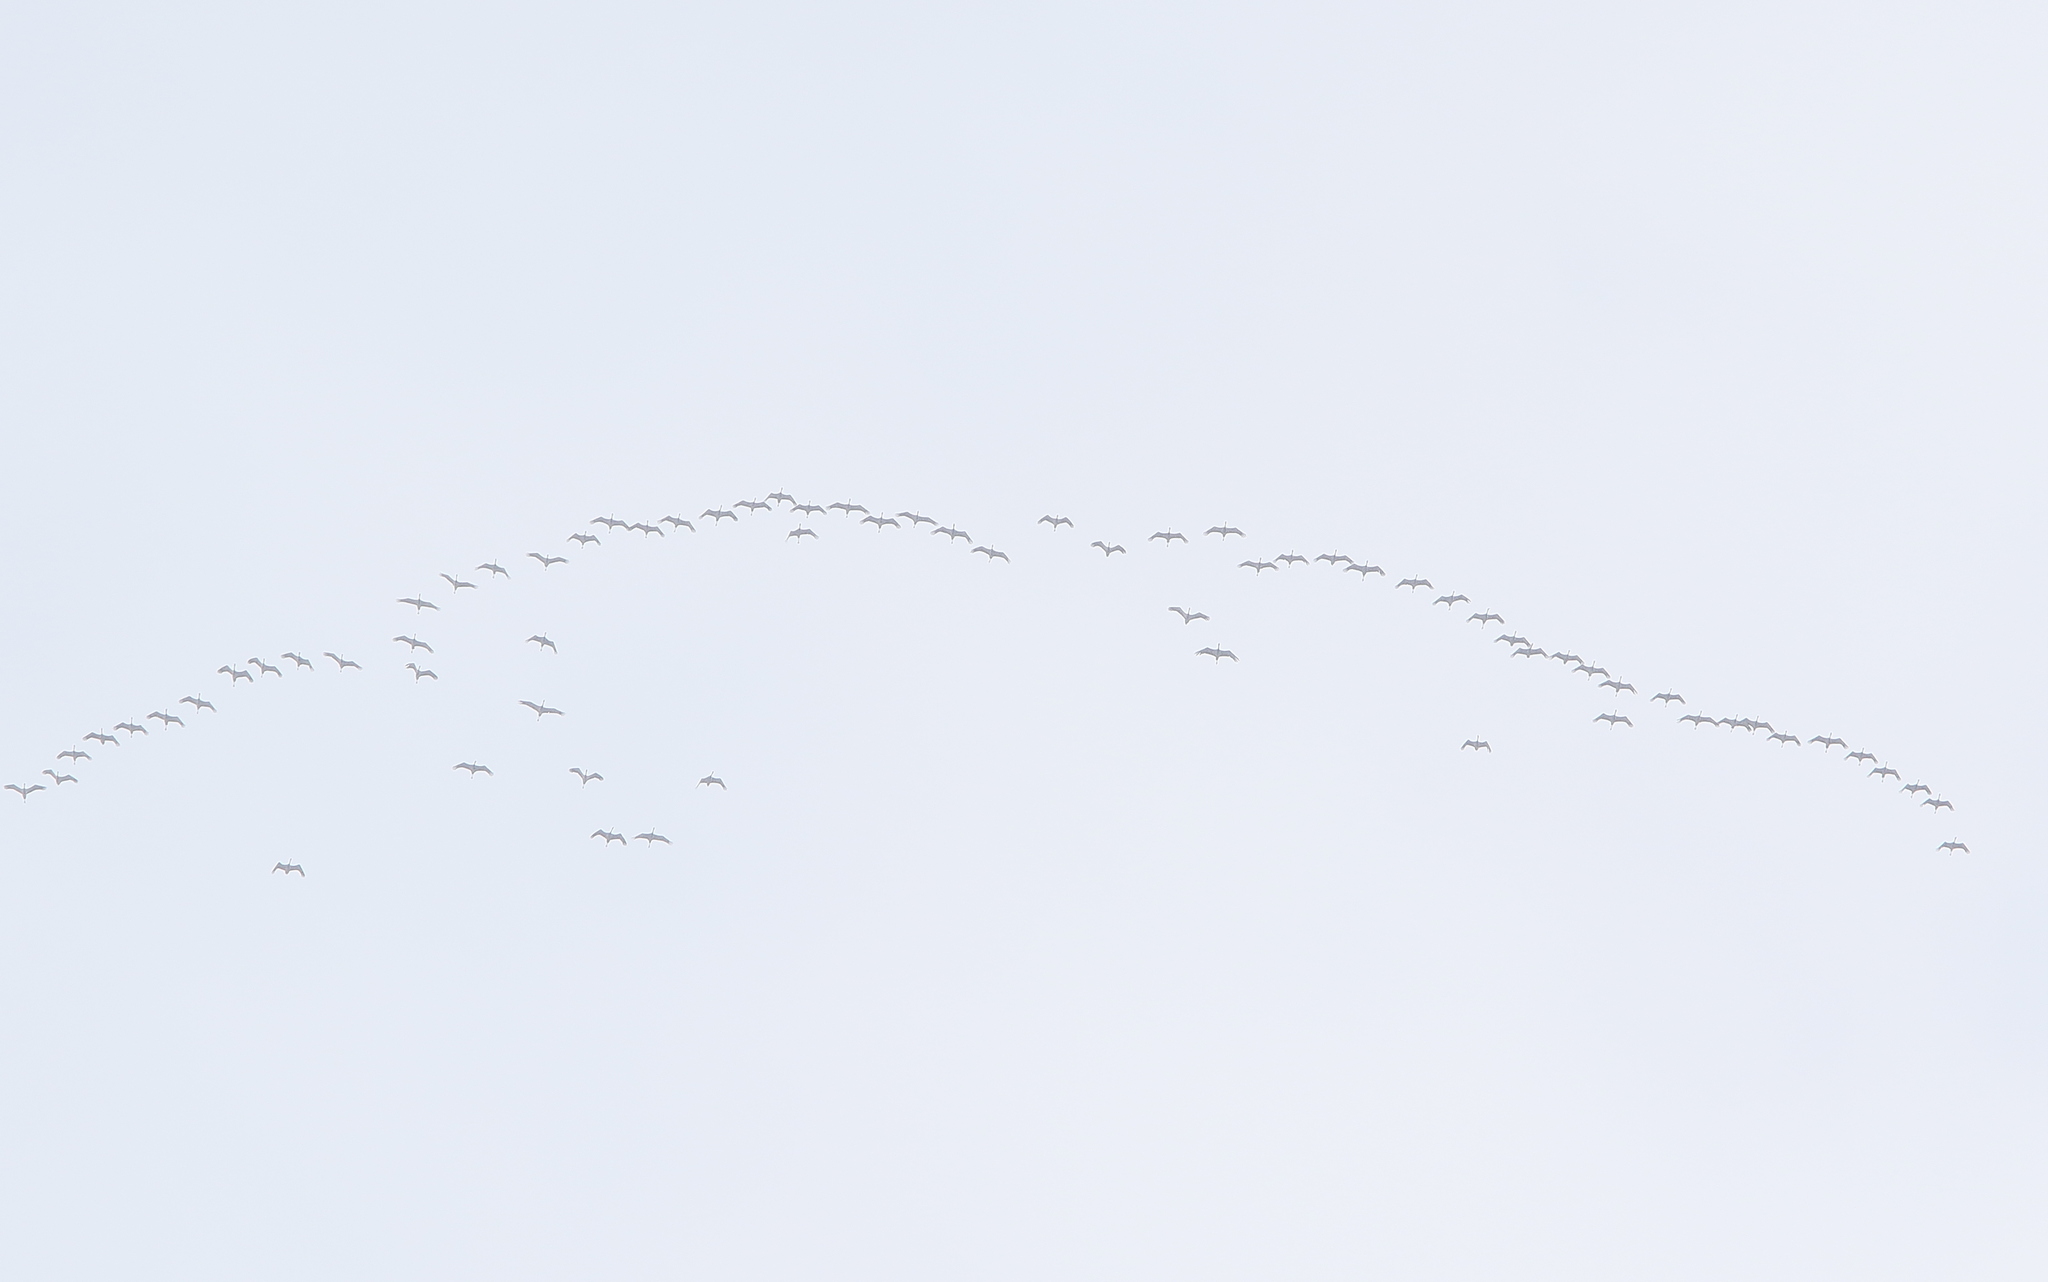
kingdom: Animalia
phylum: Chordata
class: Aves
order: Gruiformes
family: Gruidae
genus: Anthropoides
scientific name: Anthropoides virgo
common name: Demoiselle crane
